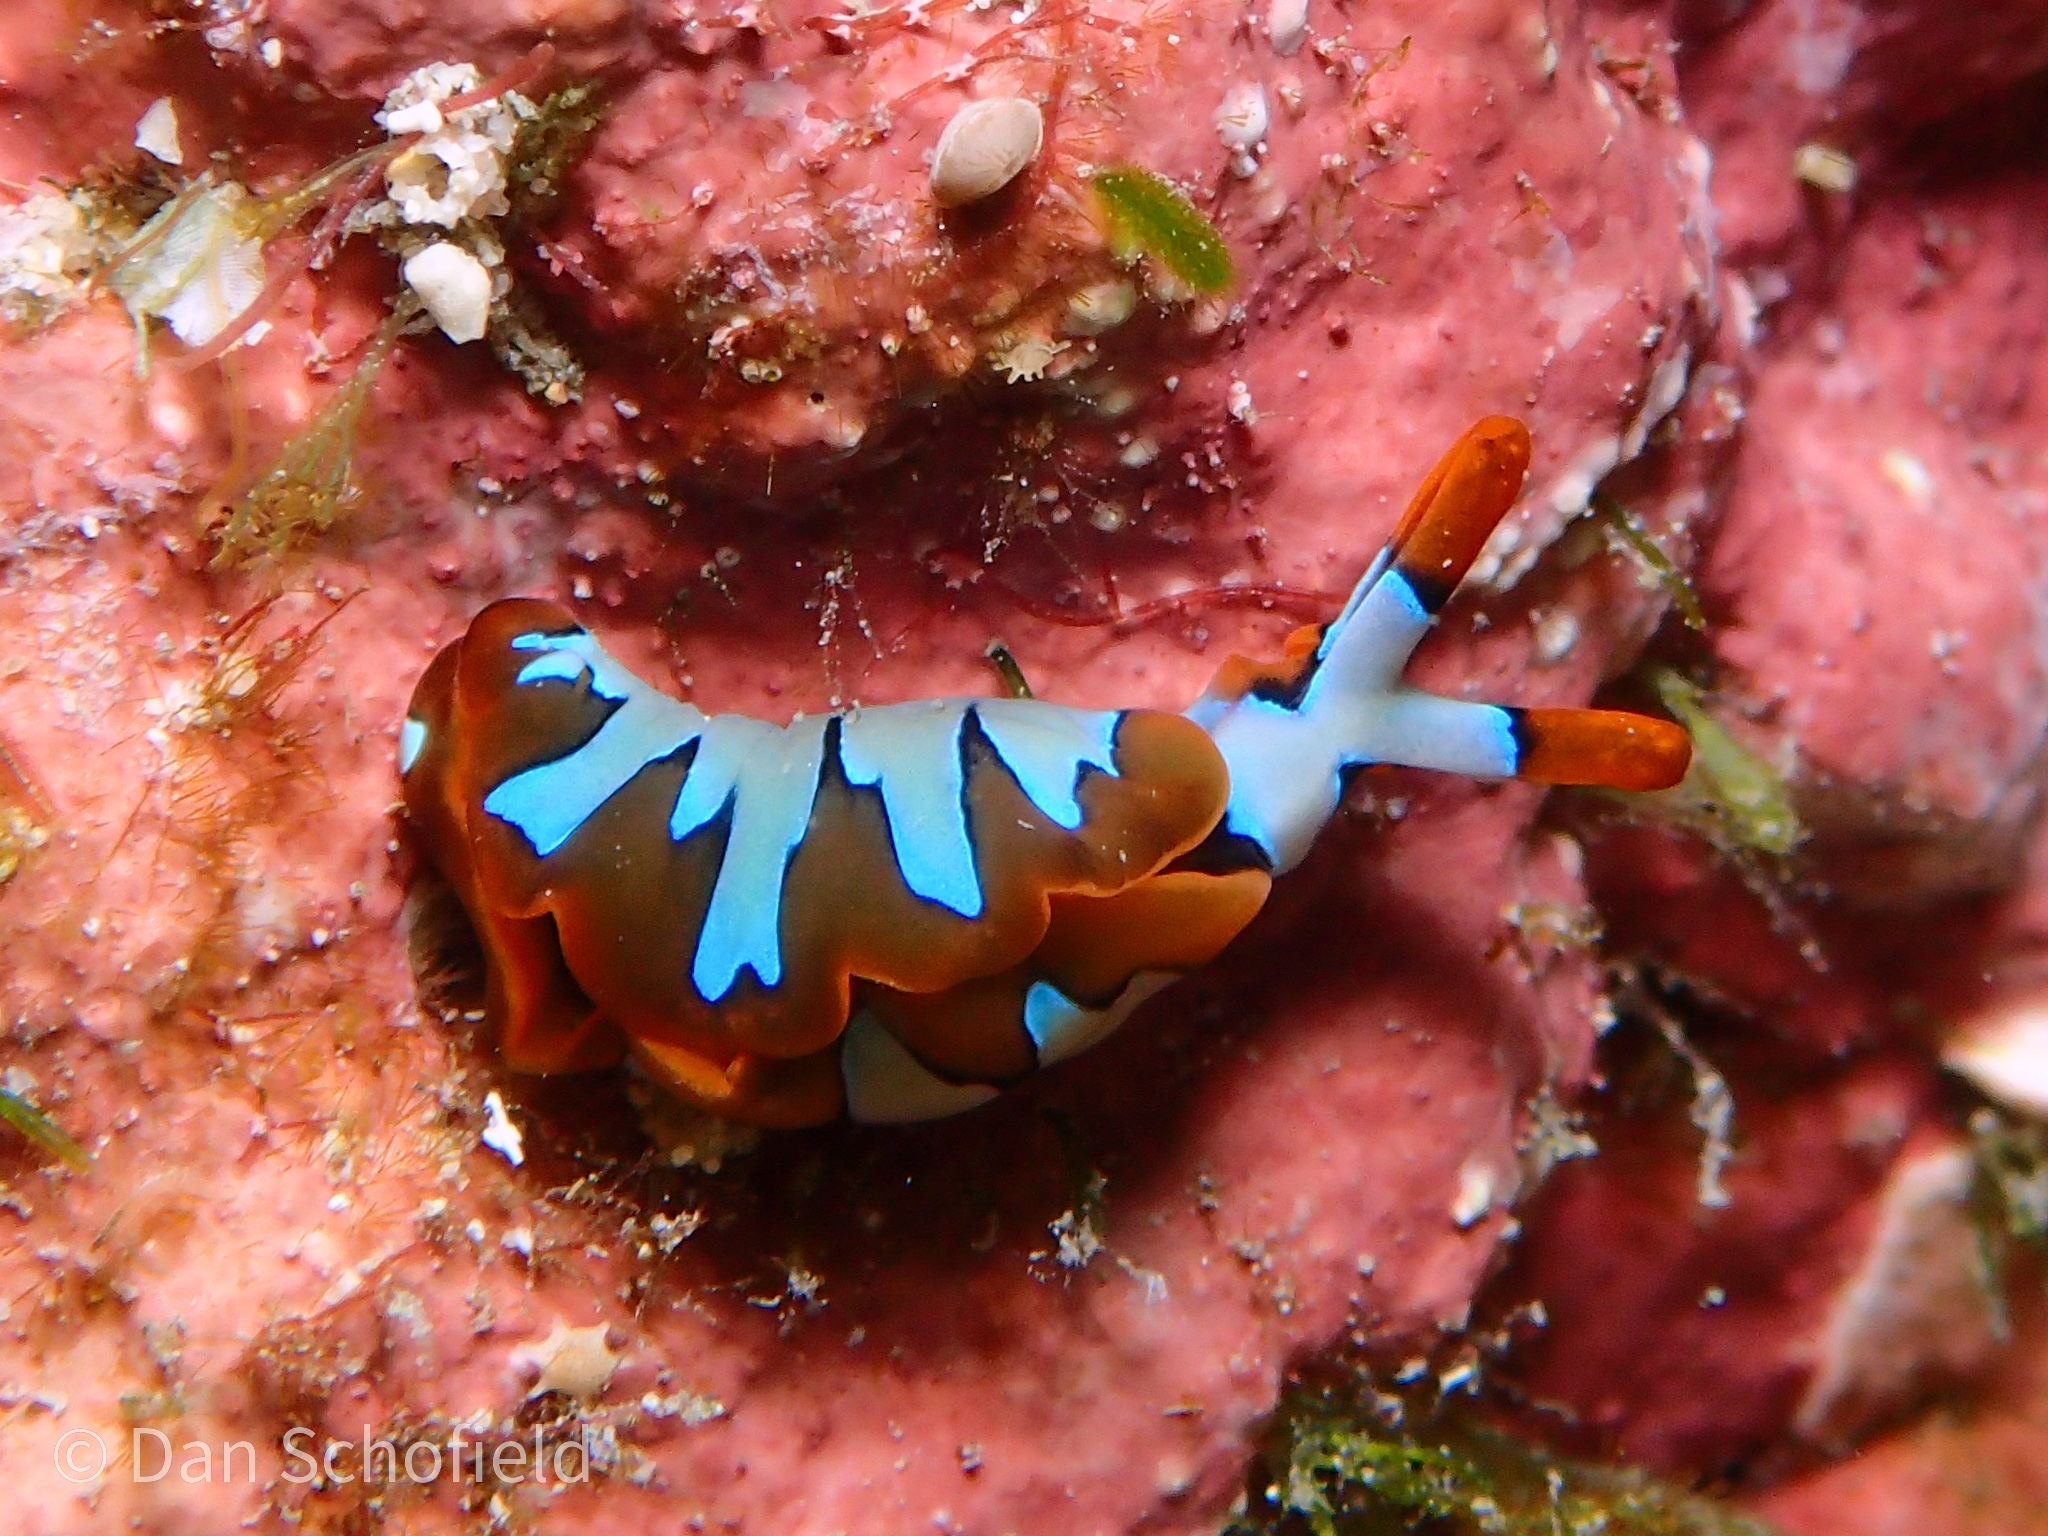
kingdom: Animalia
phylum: Mollusca
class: Gastropoda
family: Plakobranchidae
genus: Thuridilla
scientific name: Thuridilla undula
